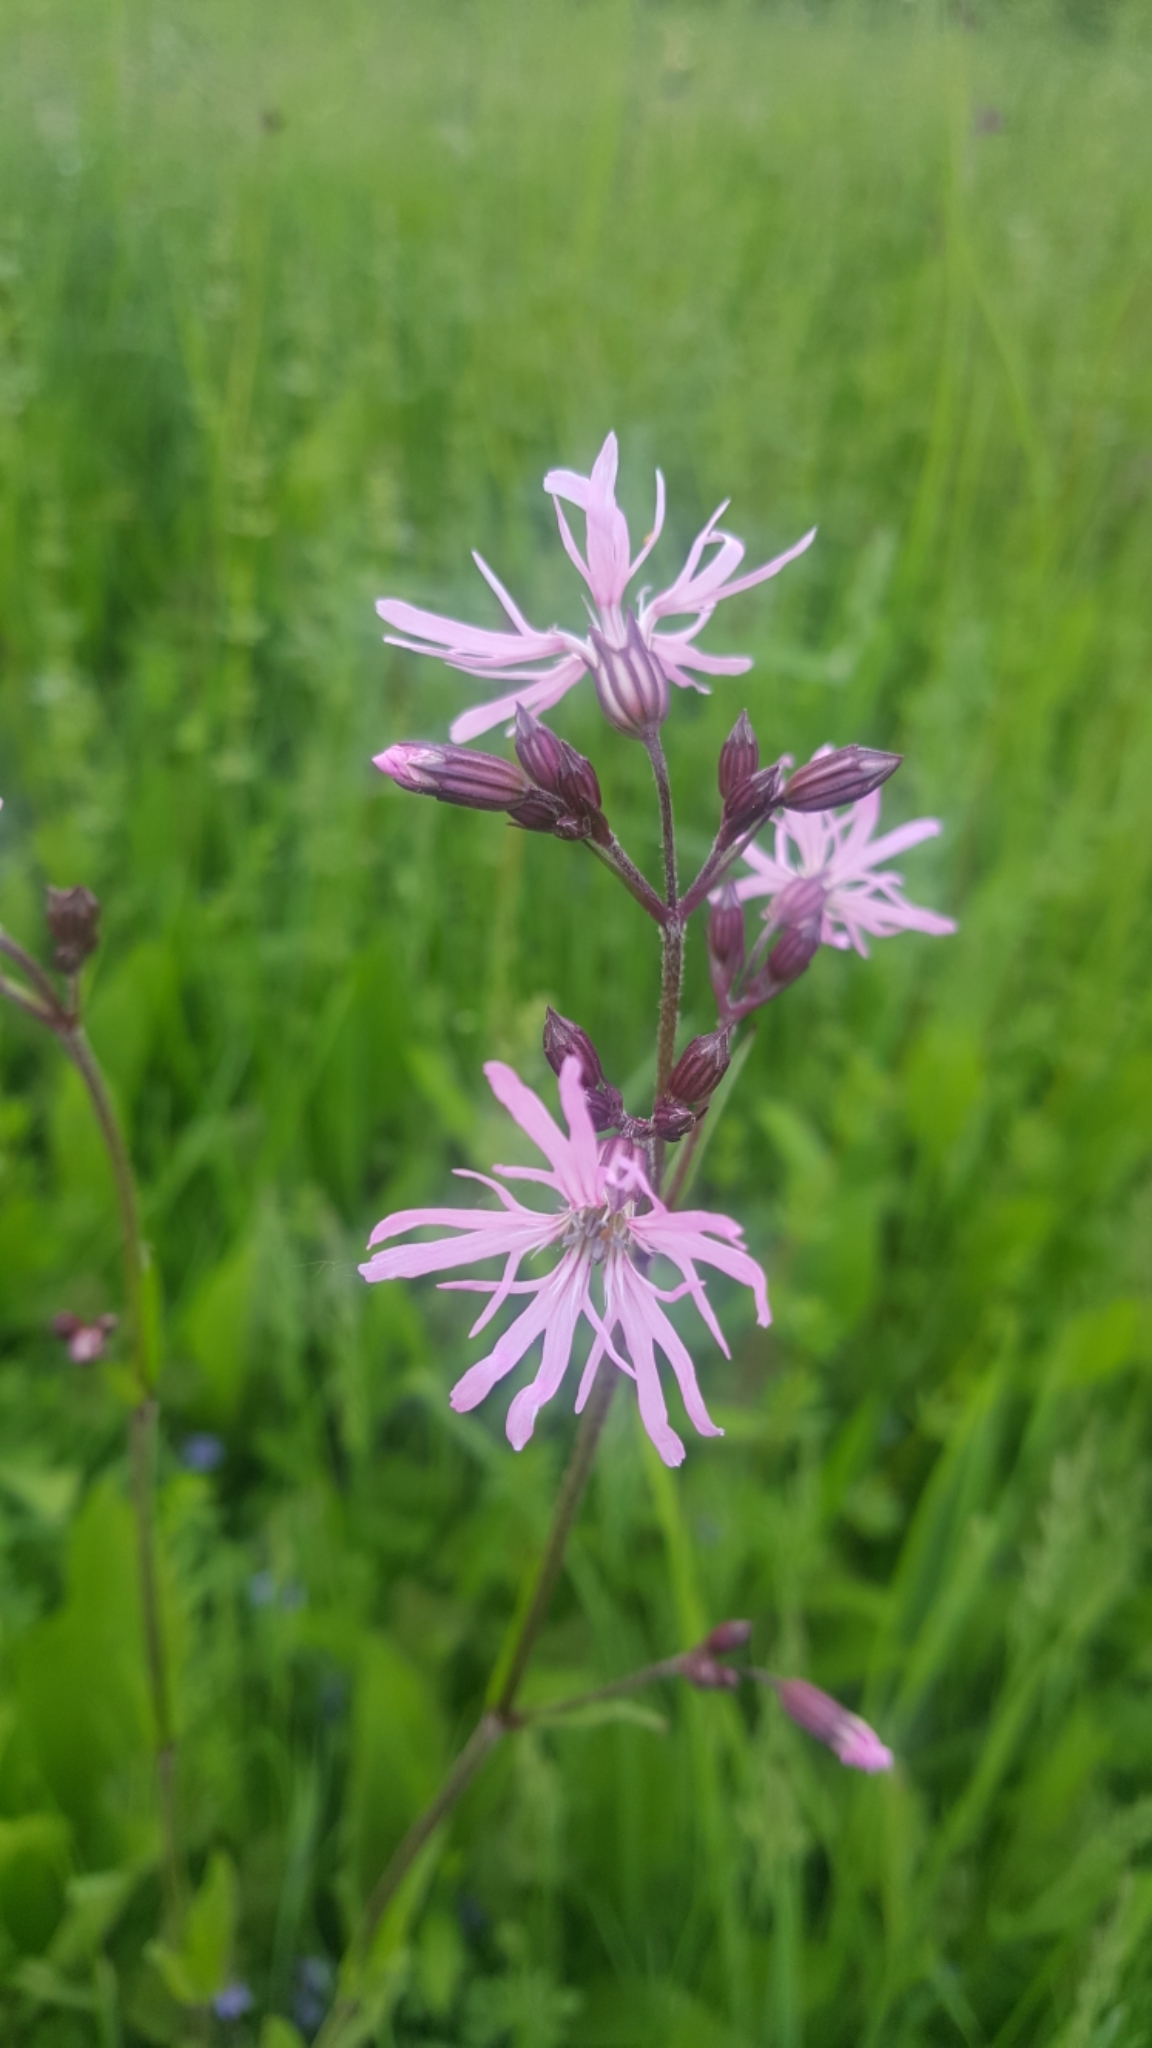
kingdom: Plantae
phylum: Tracheophyta
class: Magnoliopsida
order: Caryophyllales
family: Caryophyllaceae
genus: Silene
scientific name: Silene flos-cuculi
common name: Ragged-robin
